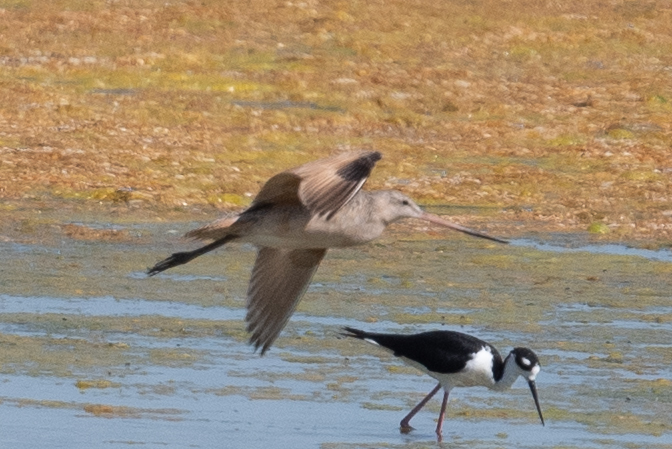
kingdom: Animalia
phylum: Chordata
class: Aves
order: Charadriiformes
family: Scolopacidae
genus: Limosa
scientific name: Limosa fedoa
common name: Marbled godwit
